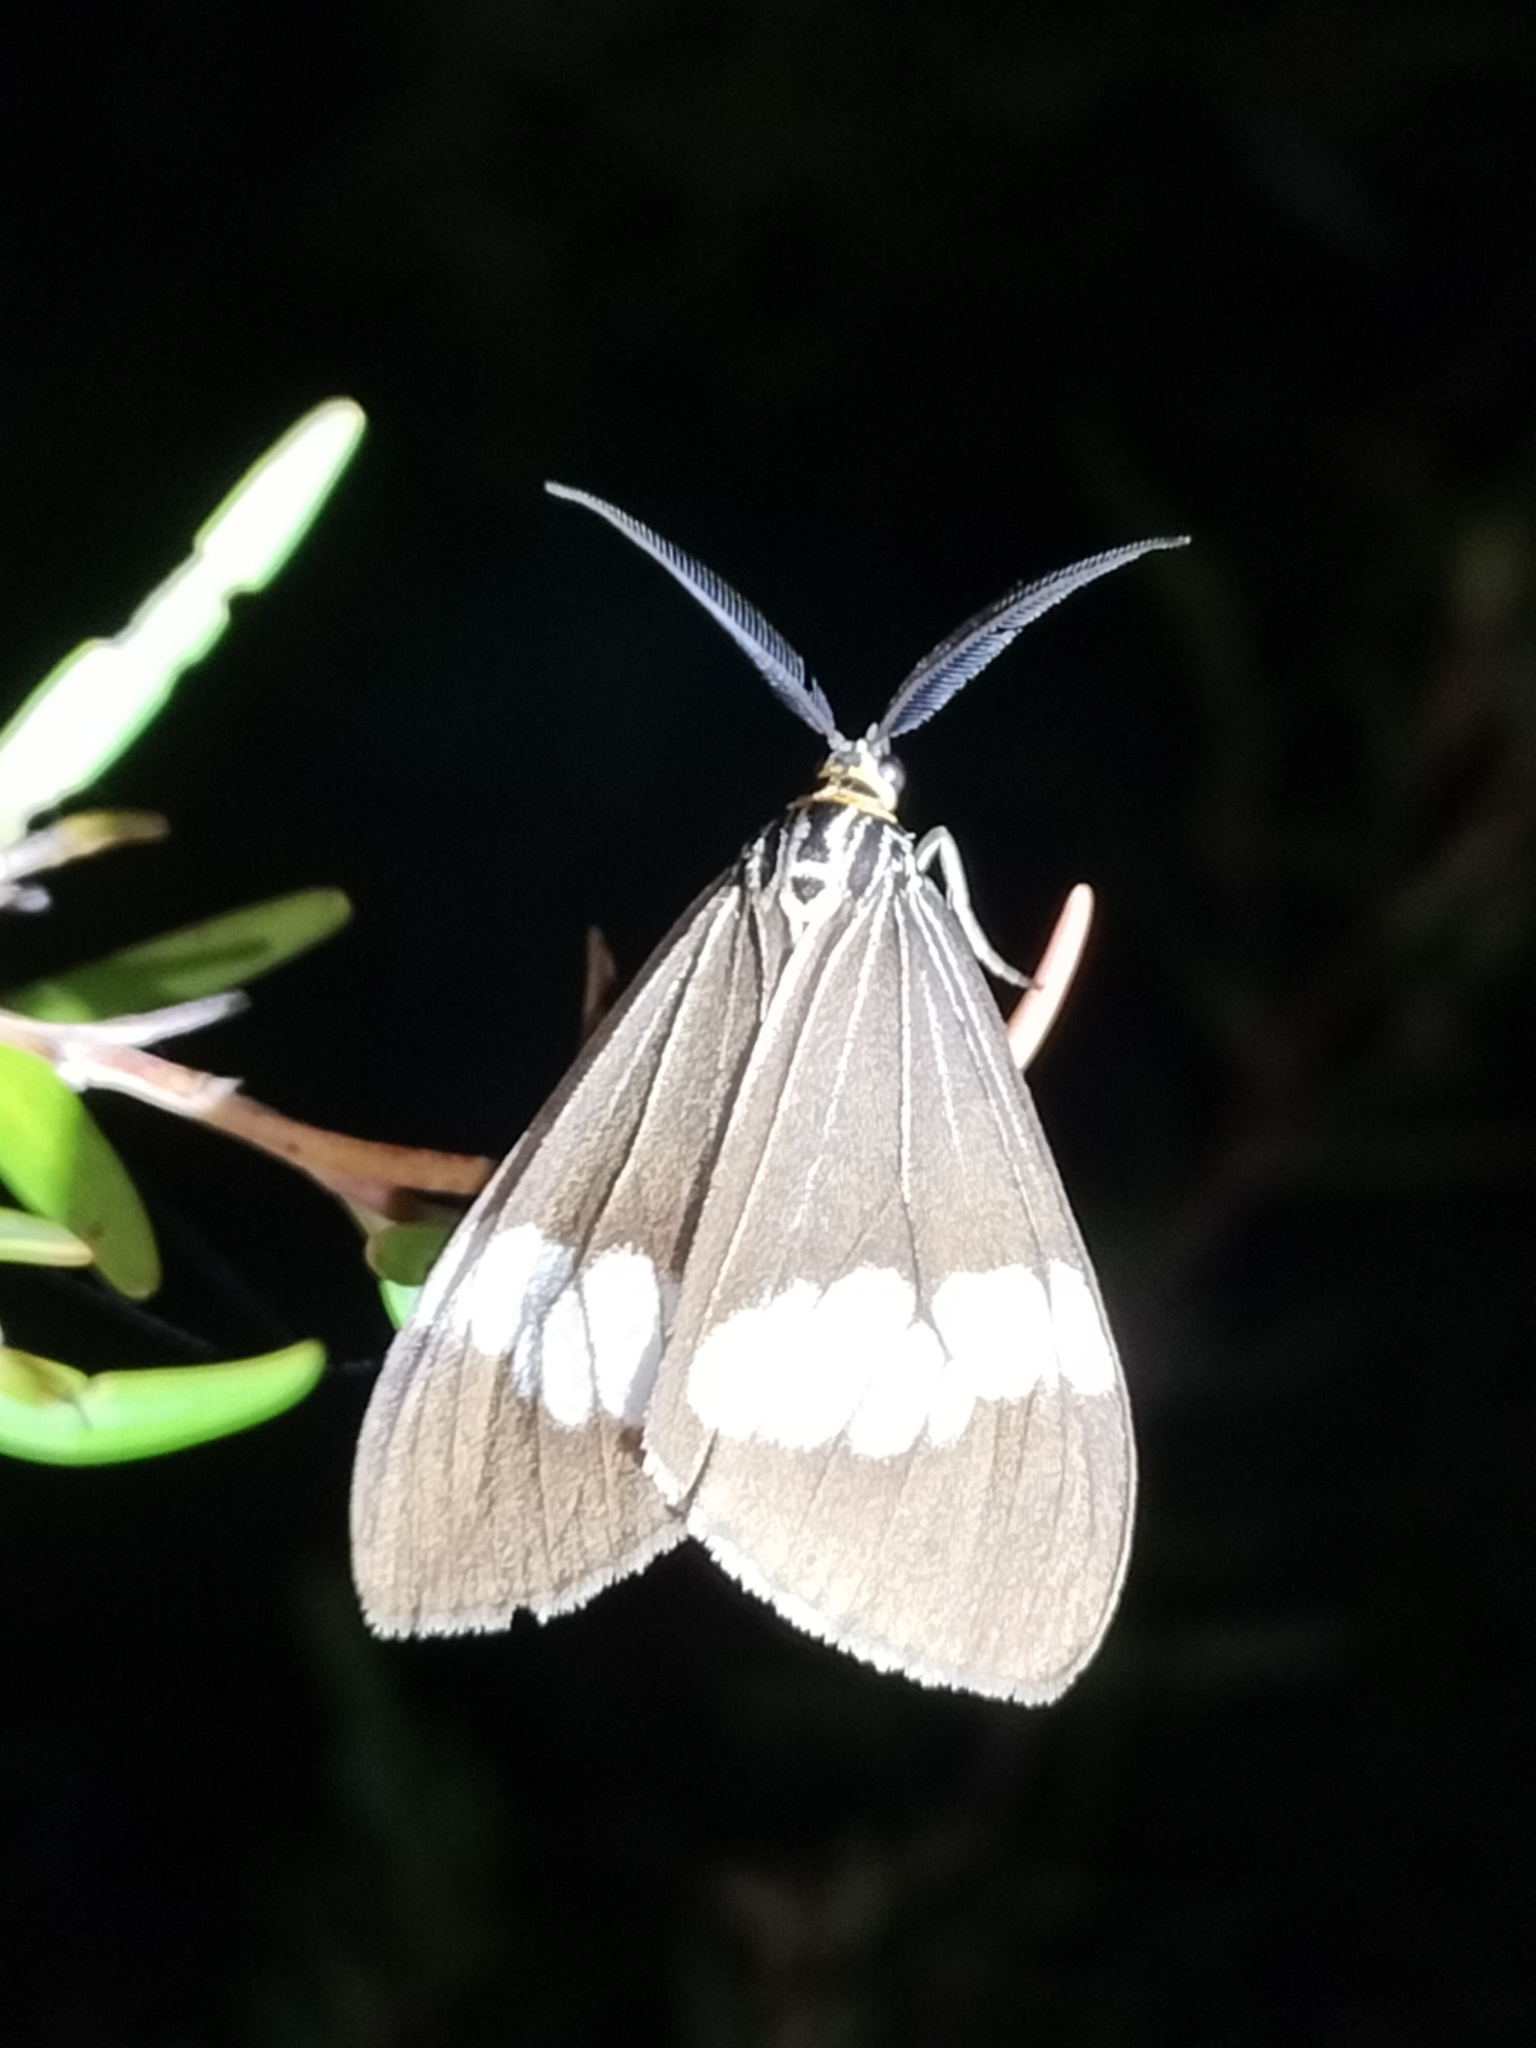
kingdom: Animalia
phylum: Arthropoda
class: Insecta
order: Lepidoptera
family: Erebidae
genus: Nyctemera
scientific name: Nyctemera baulus
